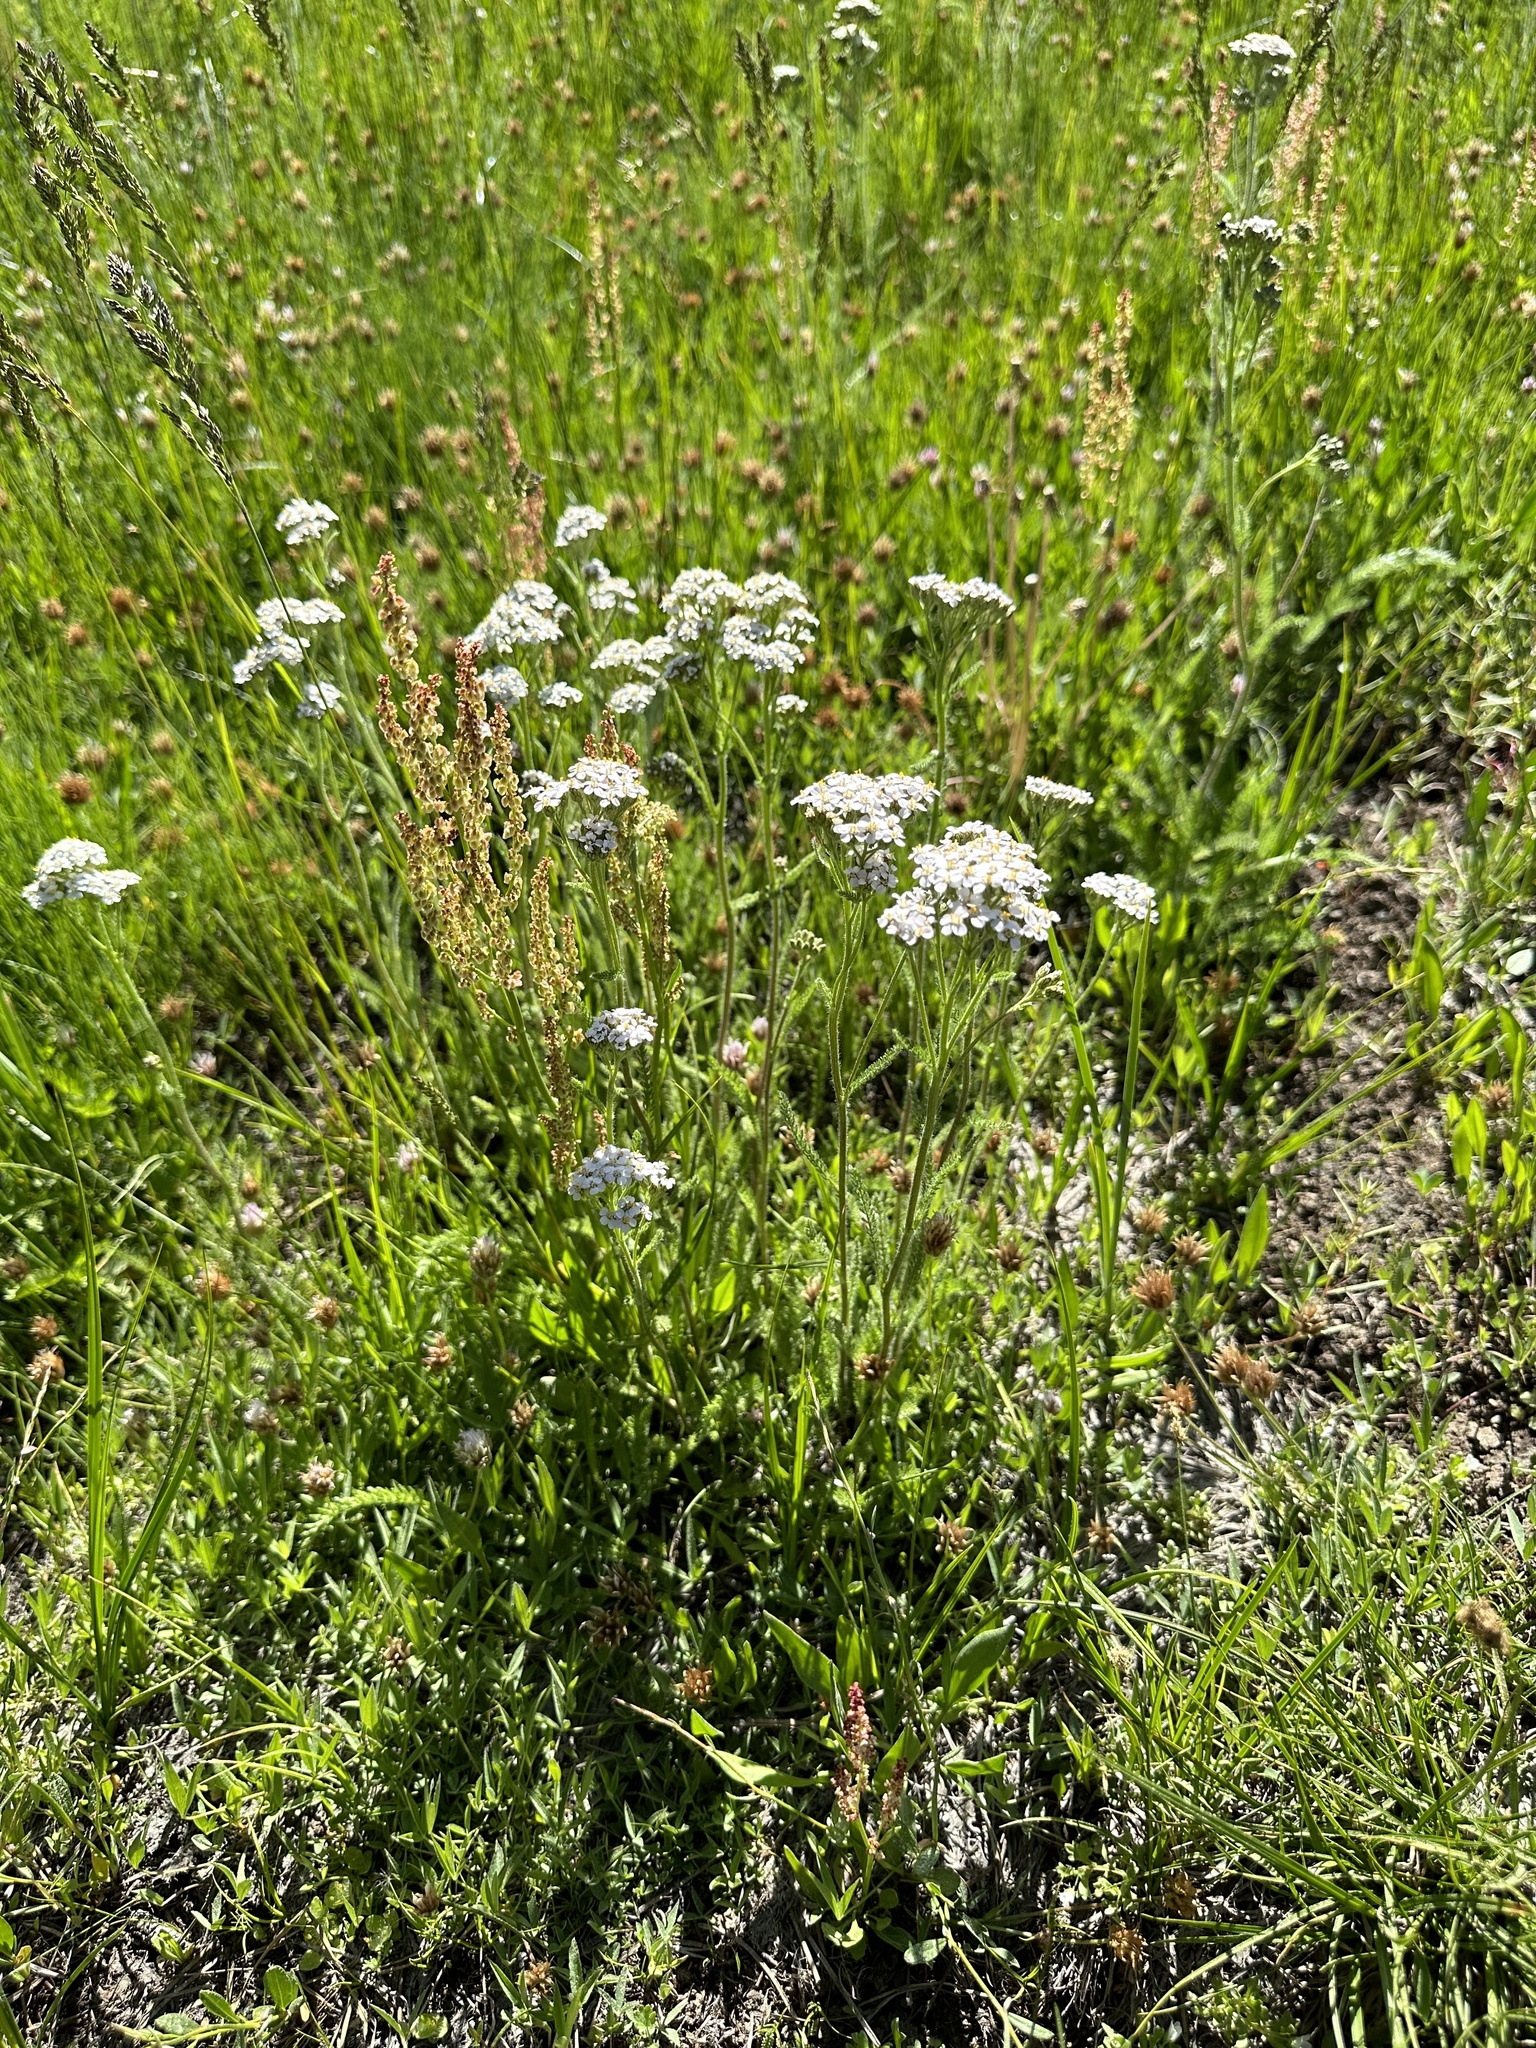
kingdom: Plantae
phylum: Tracheophyta
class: Magnoliopsida
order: Asterales
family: Asteraceae
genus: Achillea
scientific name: Achillea millefolium
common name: Yarrow
